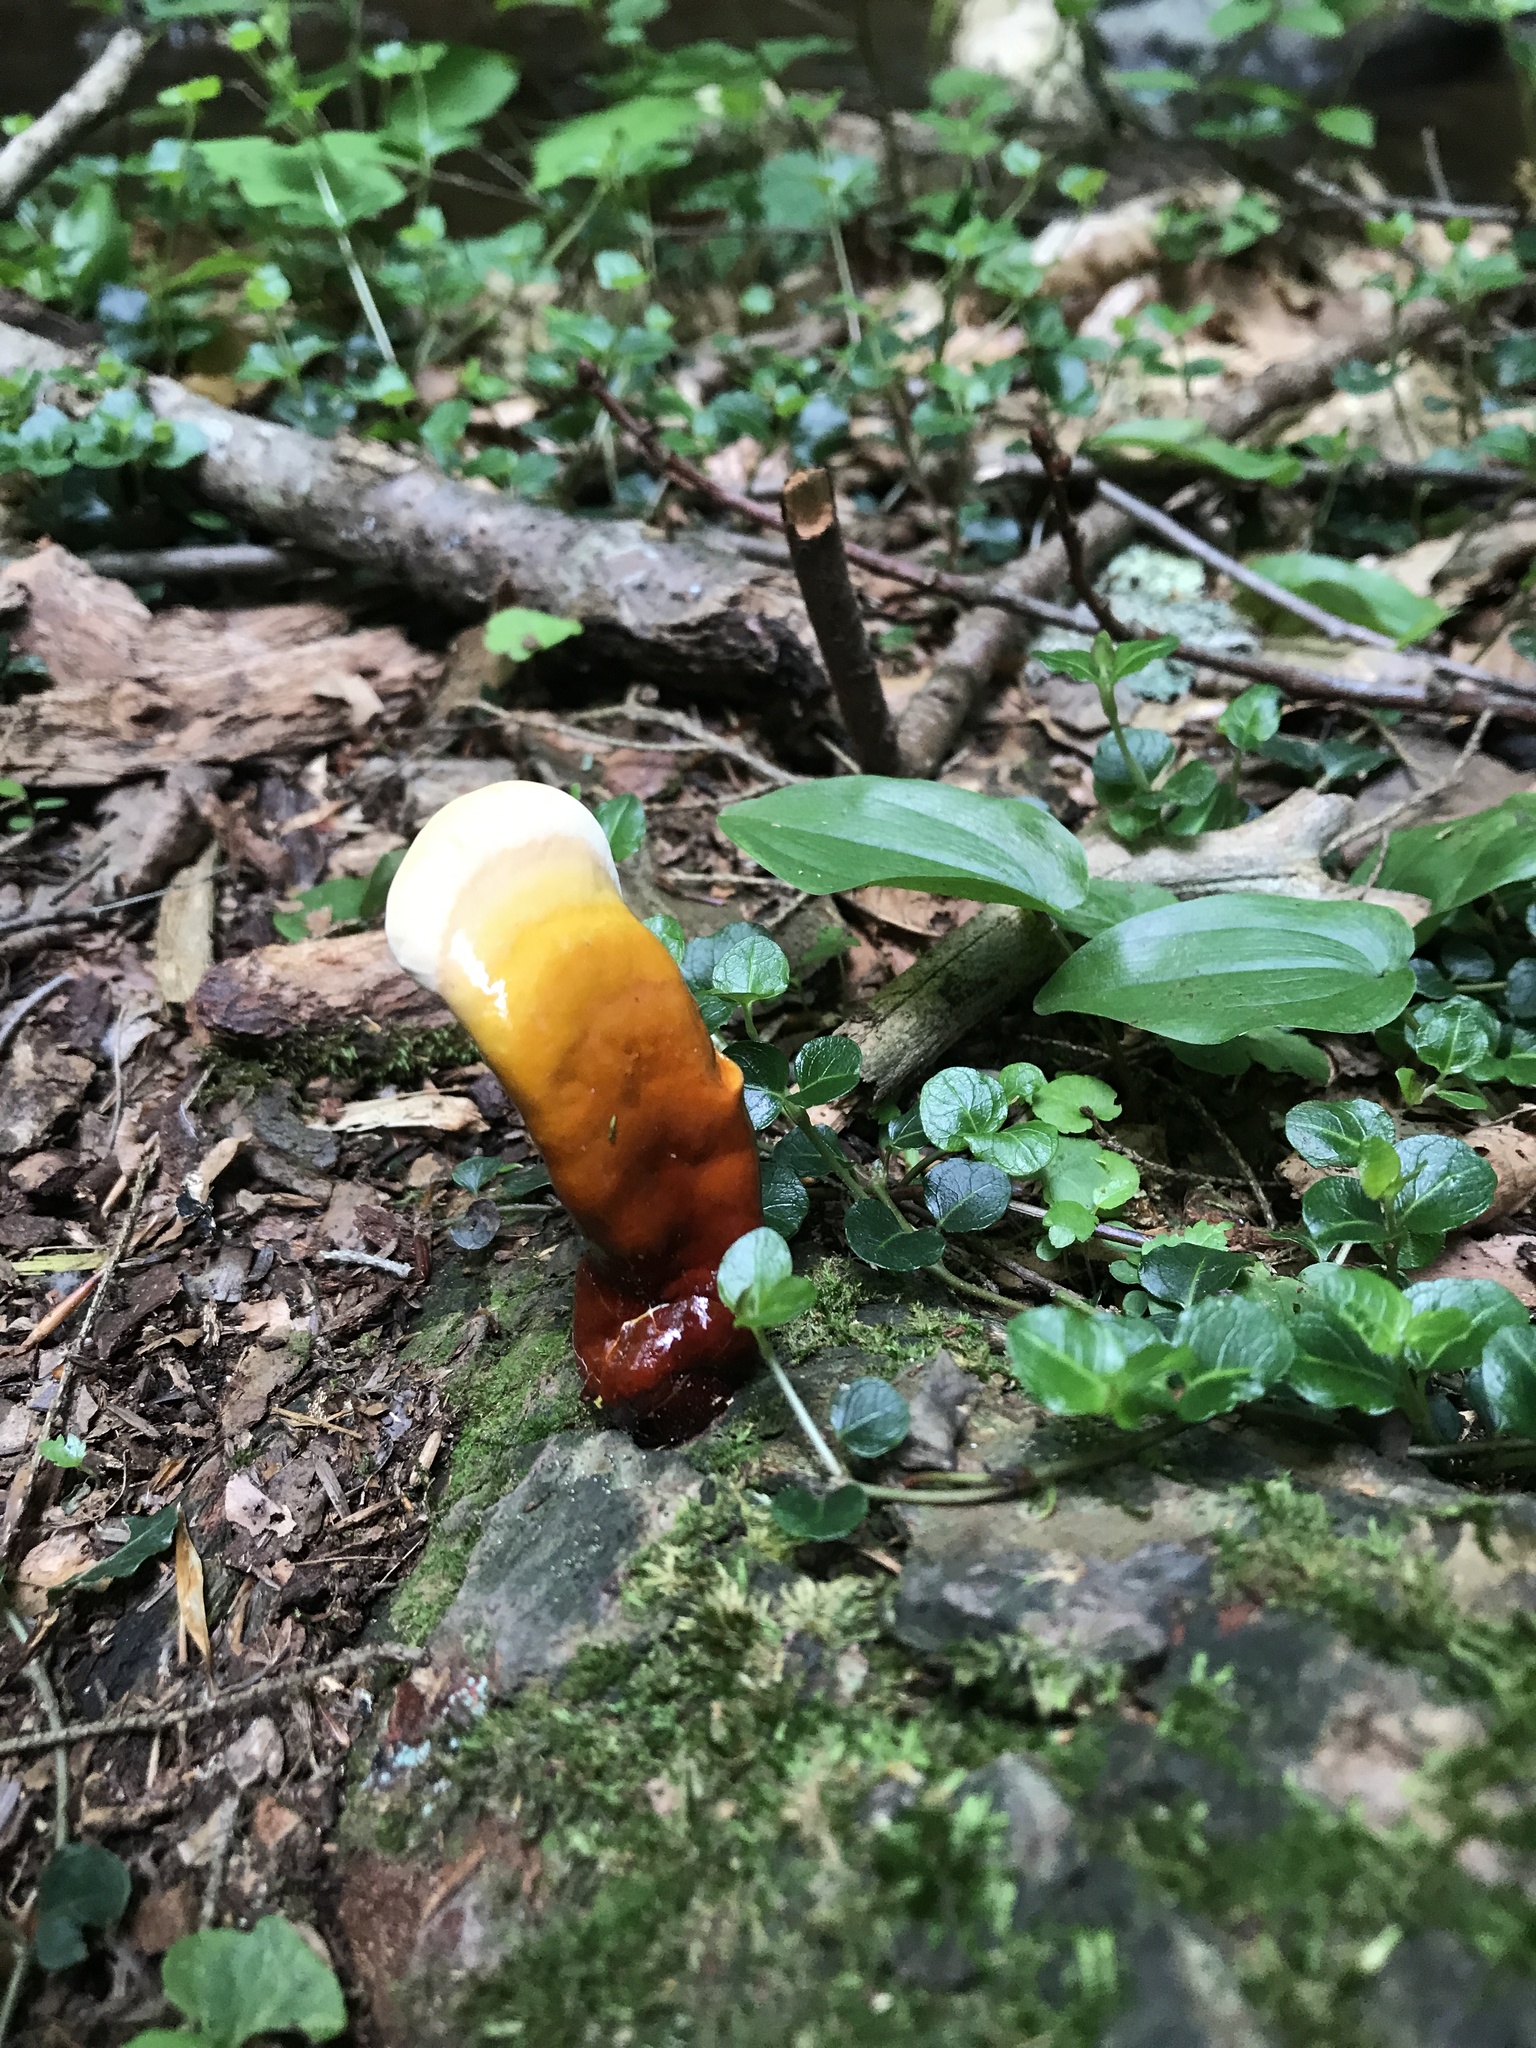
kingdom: Fungi
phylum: Basidiomycota
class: Agaricomycetes
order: Polyporales
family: Polyporaceae
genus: Ganoderma
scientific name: Ganoderma tsugae
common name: Hemlock varnish shelf
